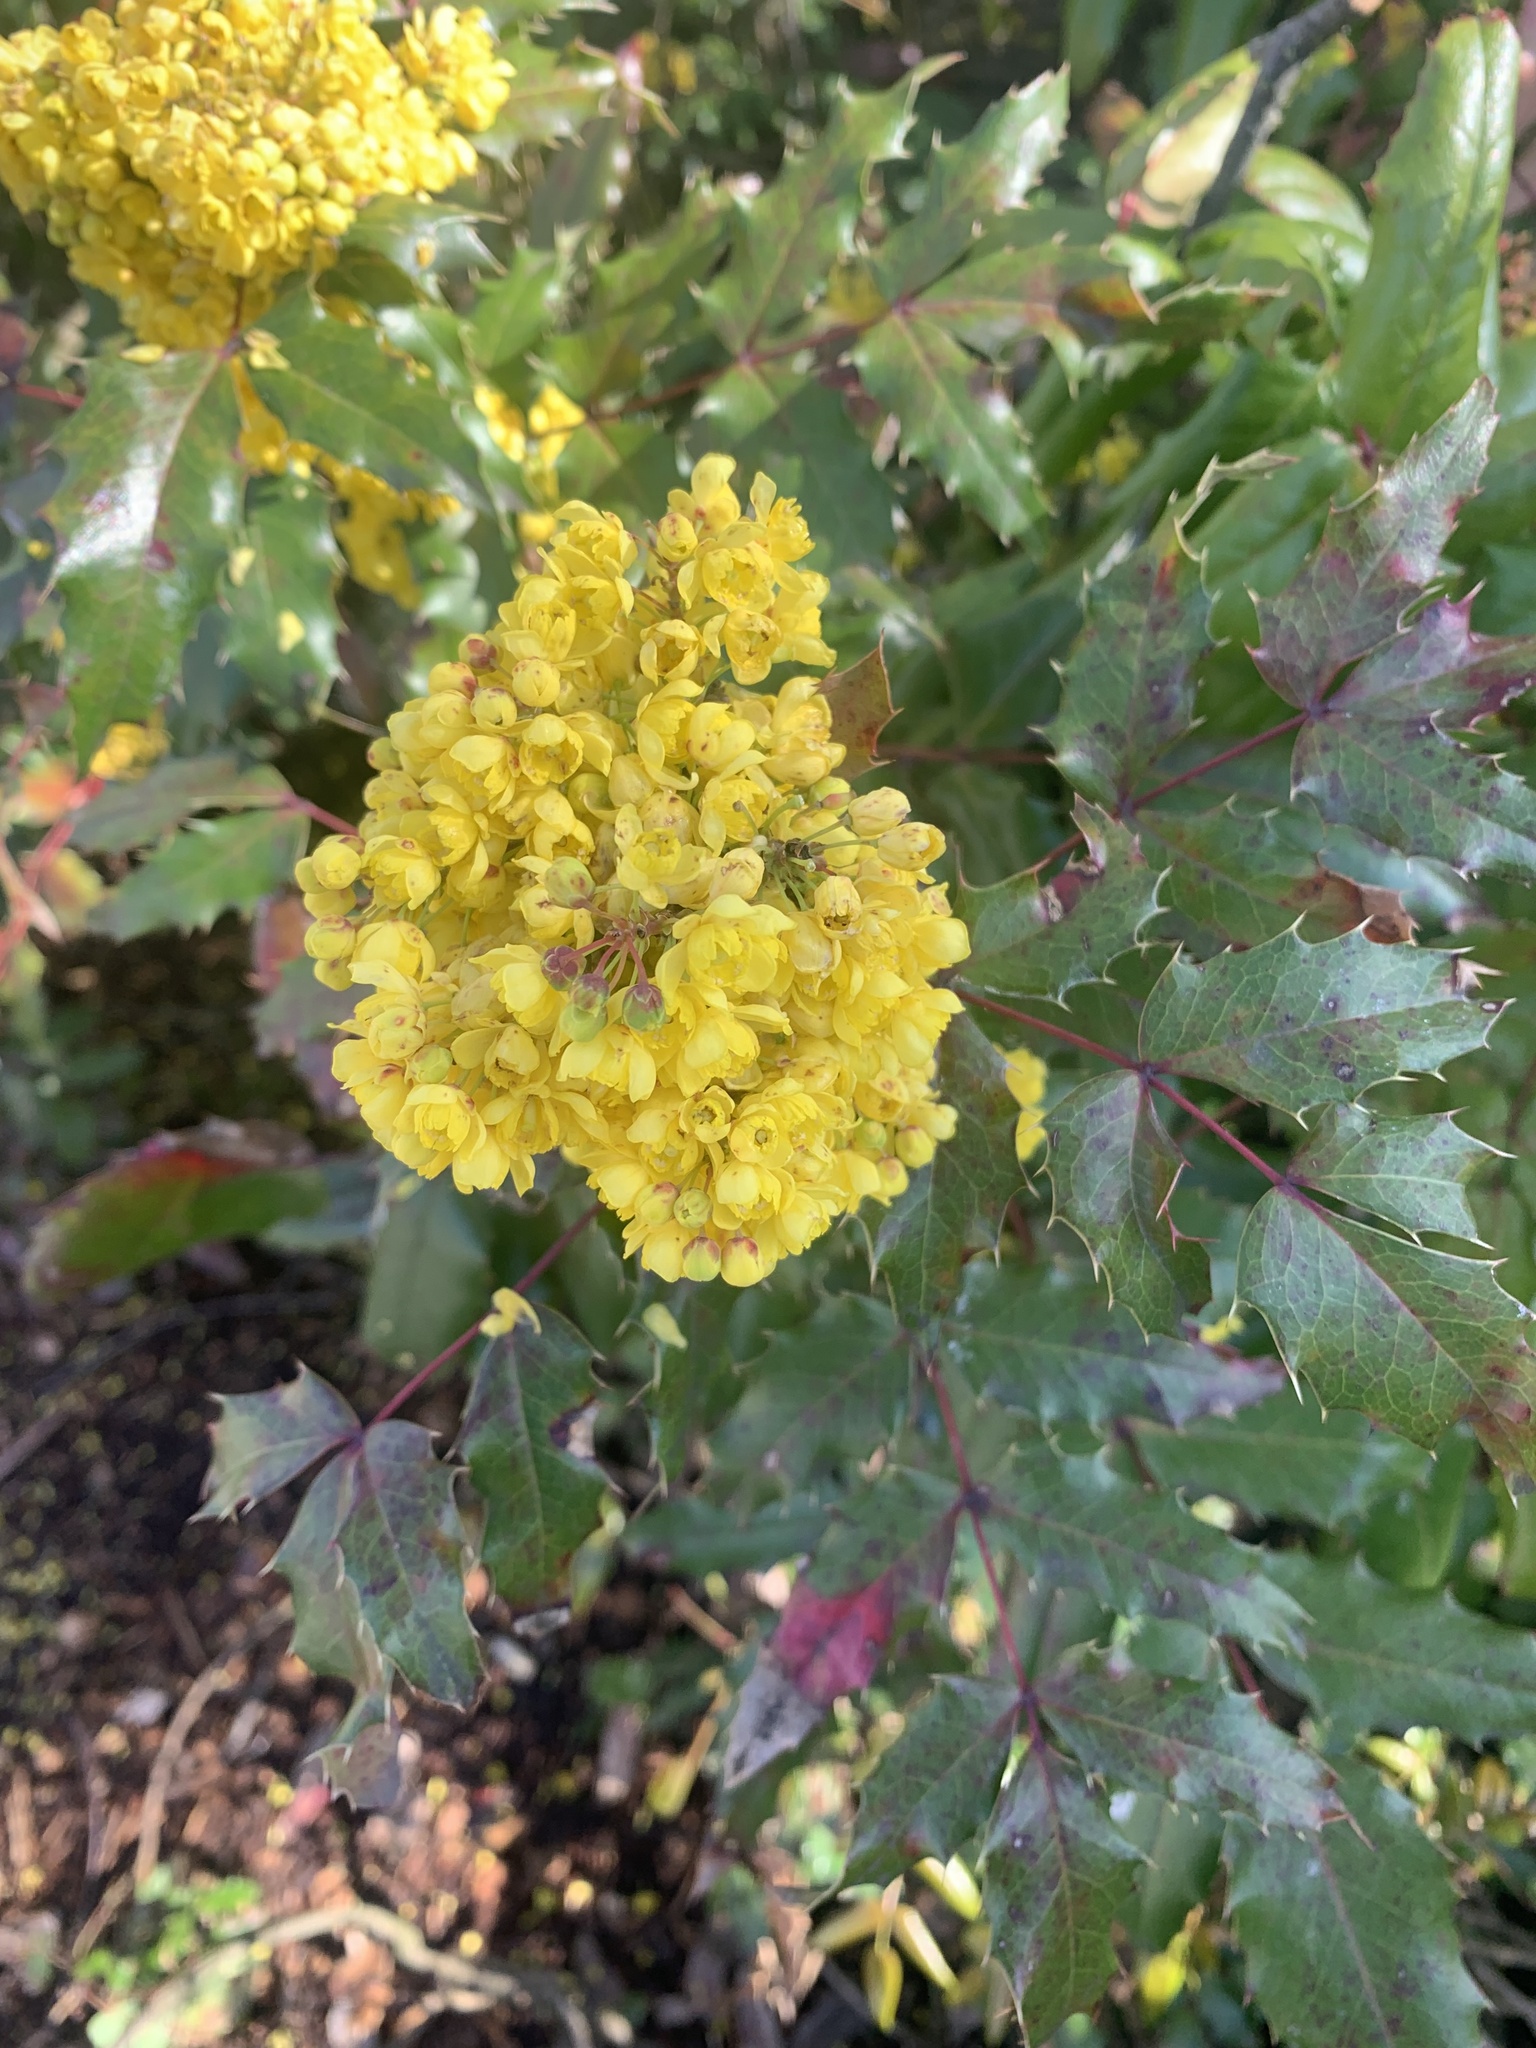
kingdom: Plantae
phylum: Tracheophyta
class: Magnoliopsida
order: Ranunculales
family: Berberidaceae
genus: Mahonia
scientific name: Mahonia aquifolium
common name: Oregon-grape
